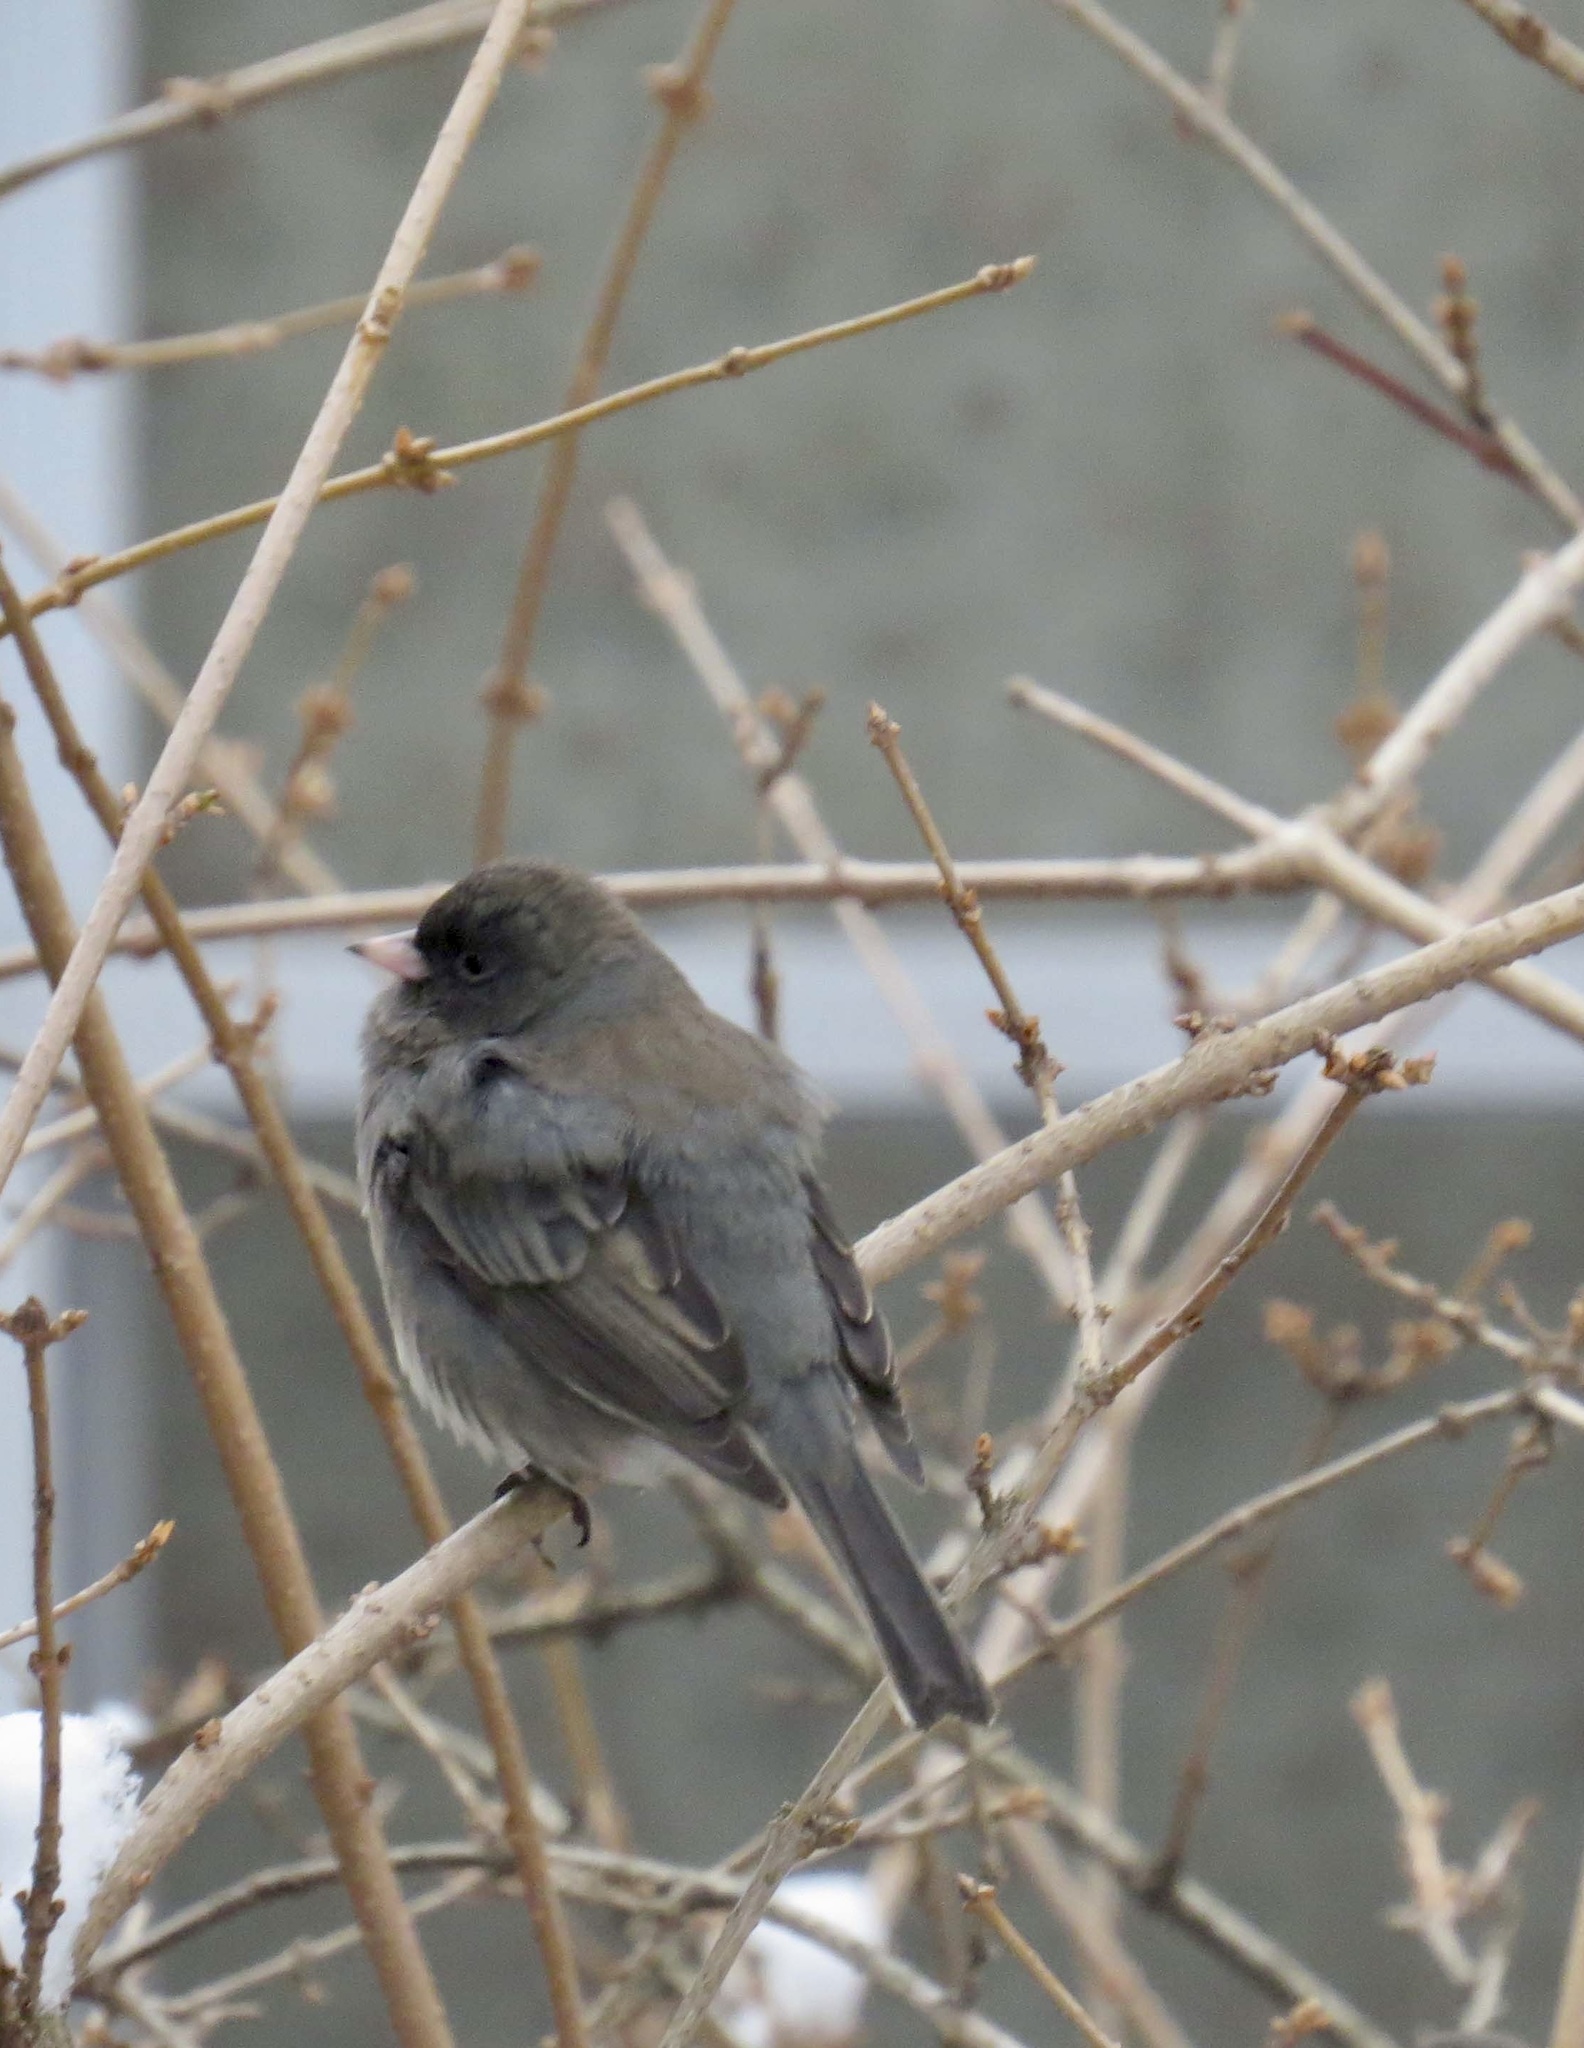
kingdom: Animalia
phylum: Chordata
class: Aves
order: Passeriformes
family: Passerellidae
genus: Junco
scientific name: Junco hyemalis
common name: Dark-eyed junco
